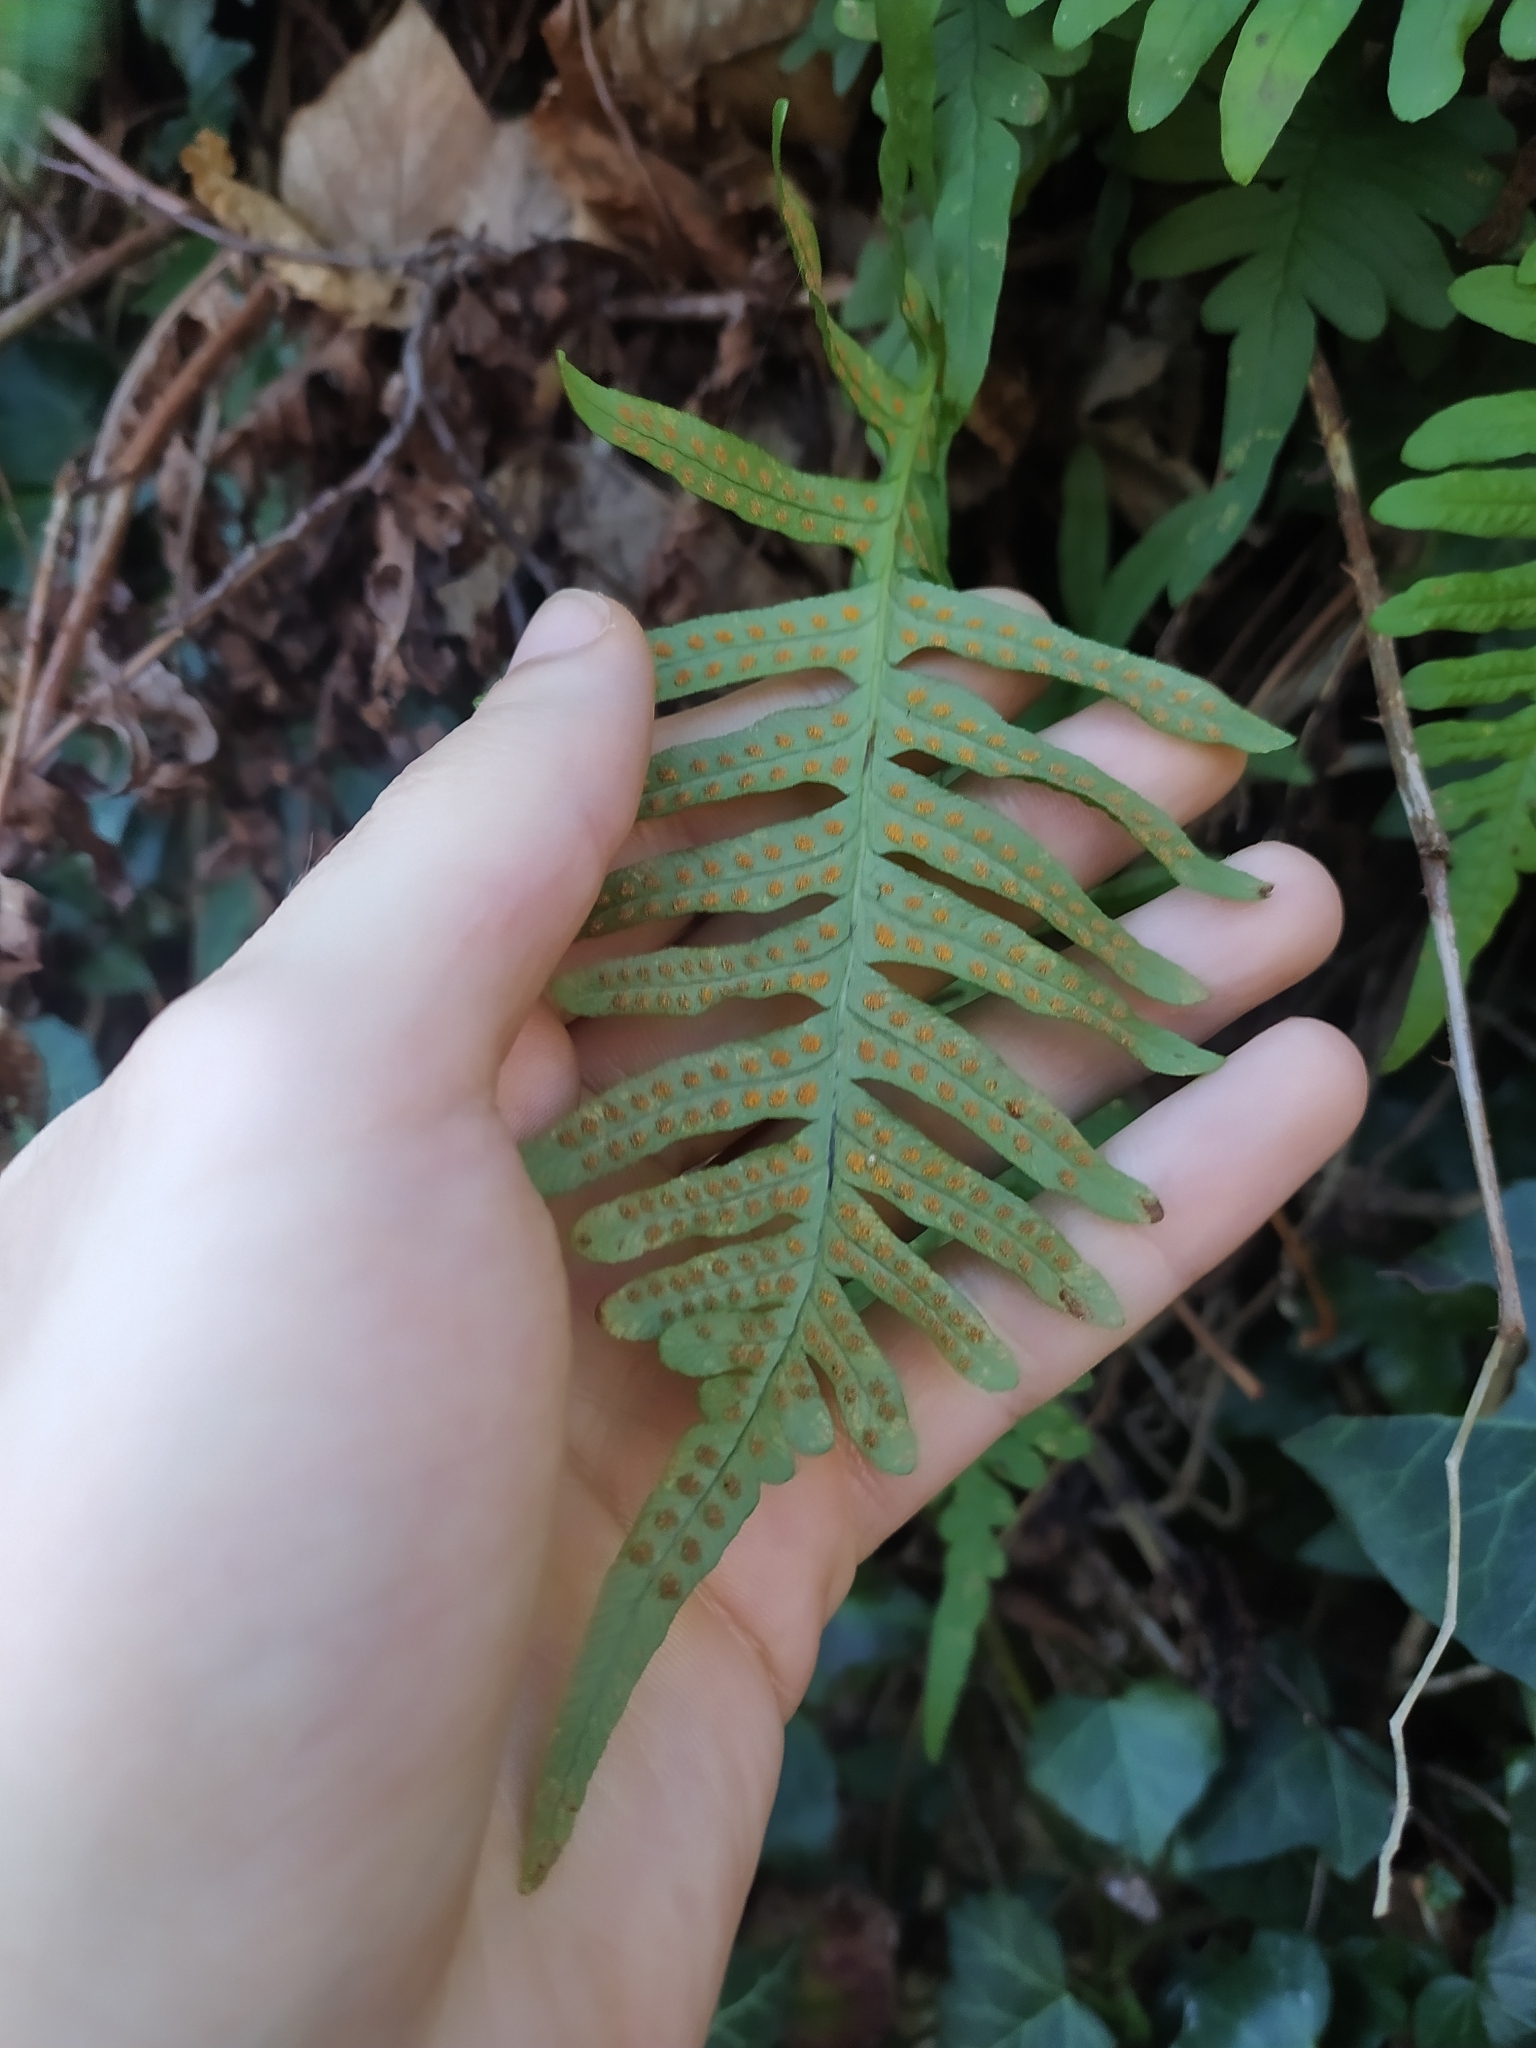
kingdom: Plantae
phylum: Tracheophyta
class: Polypodiopsida
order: Polypodiales
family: Polypodiaceae
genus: Polypodium
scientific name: Polypodium cambricum
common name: Southern polypody
